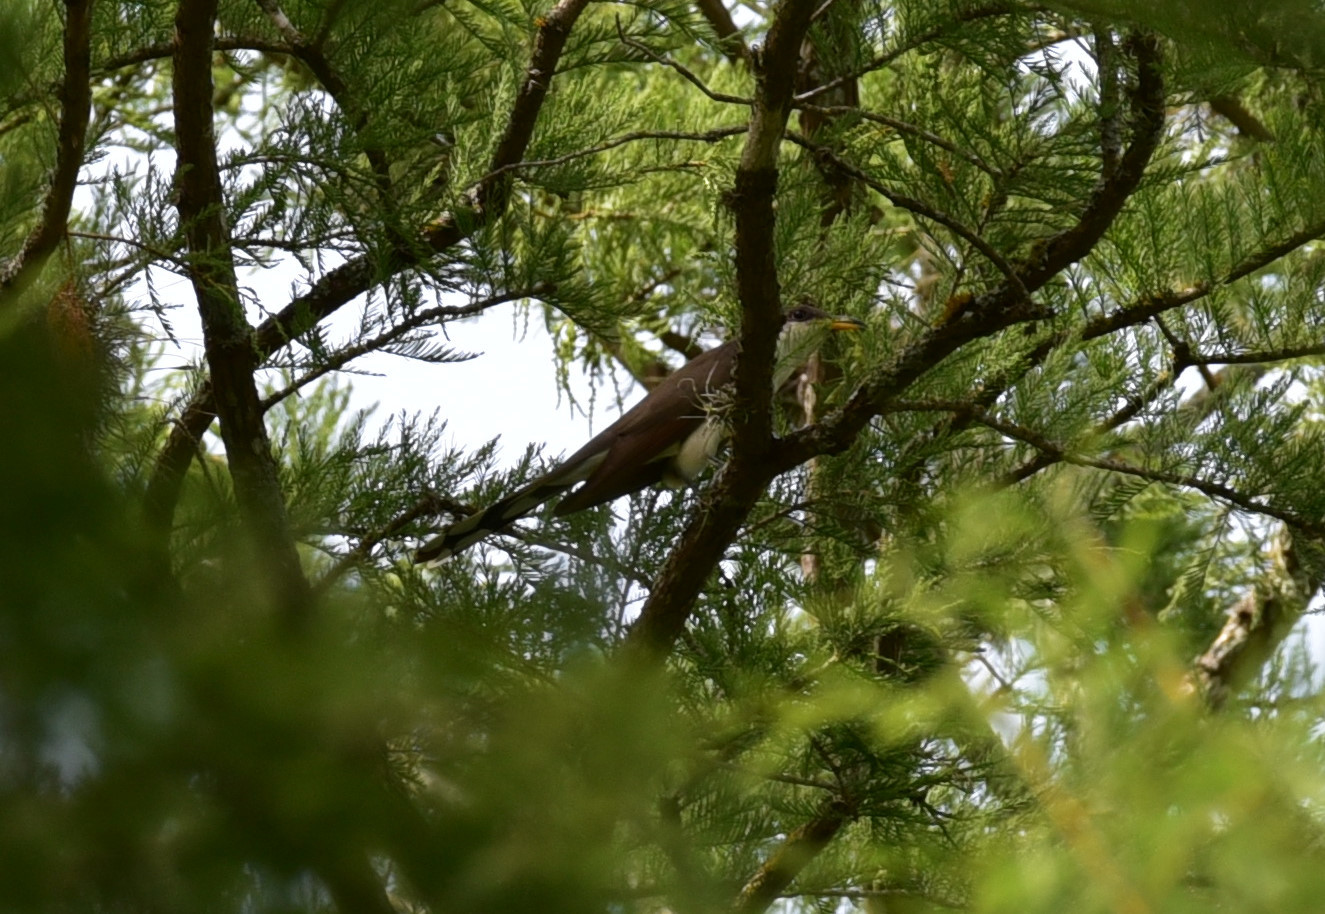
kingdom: Animalia
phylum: Chordata
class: Aves
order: Cuculiformes
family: Cuculidae
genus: Coccyzus
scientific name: Coccyzus americanus
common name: Yellow-billed cuckoo
